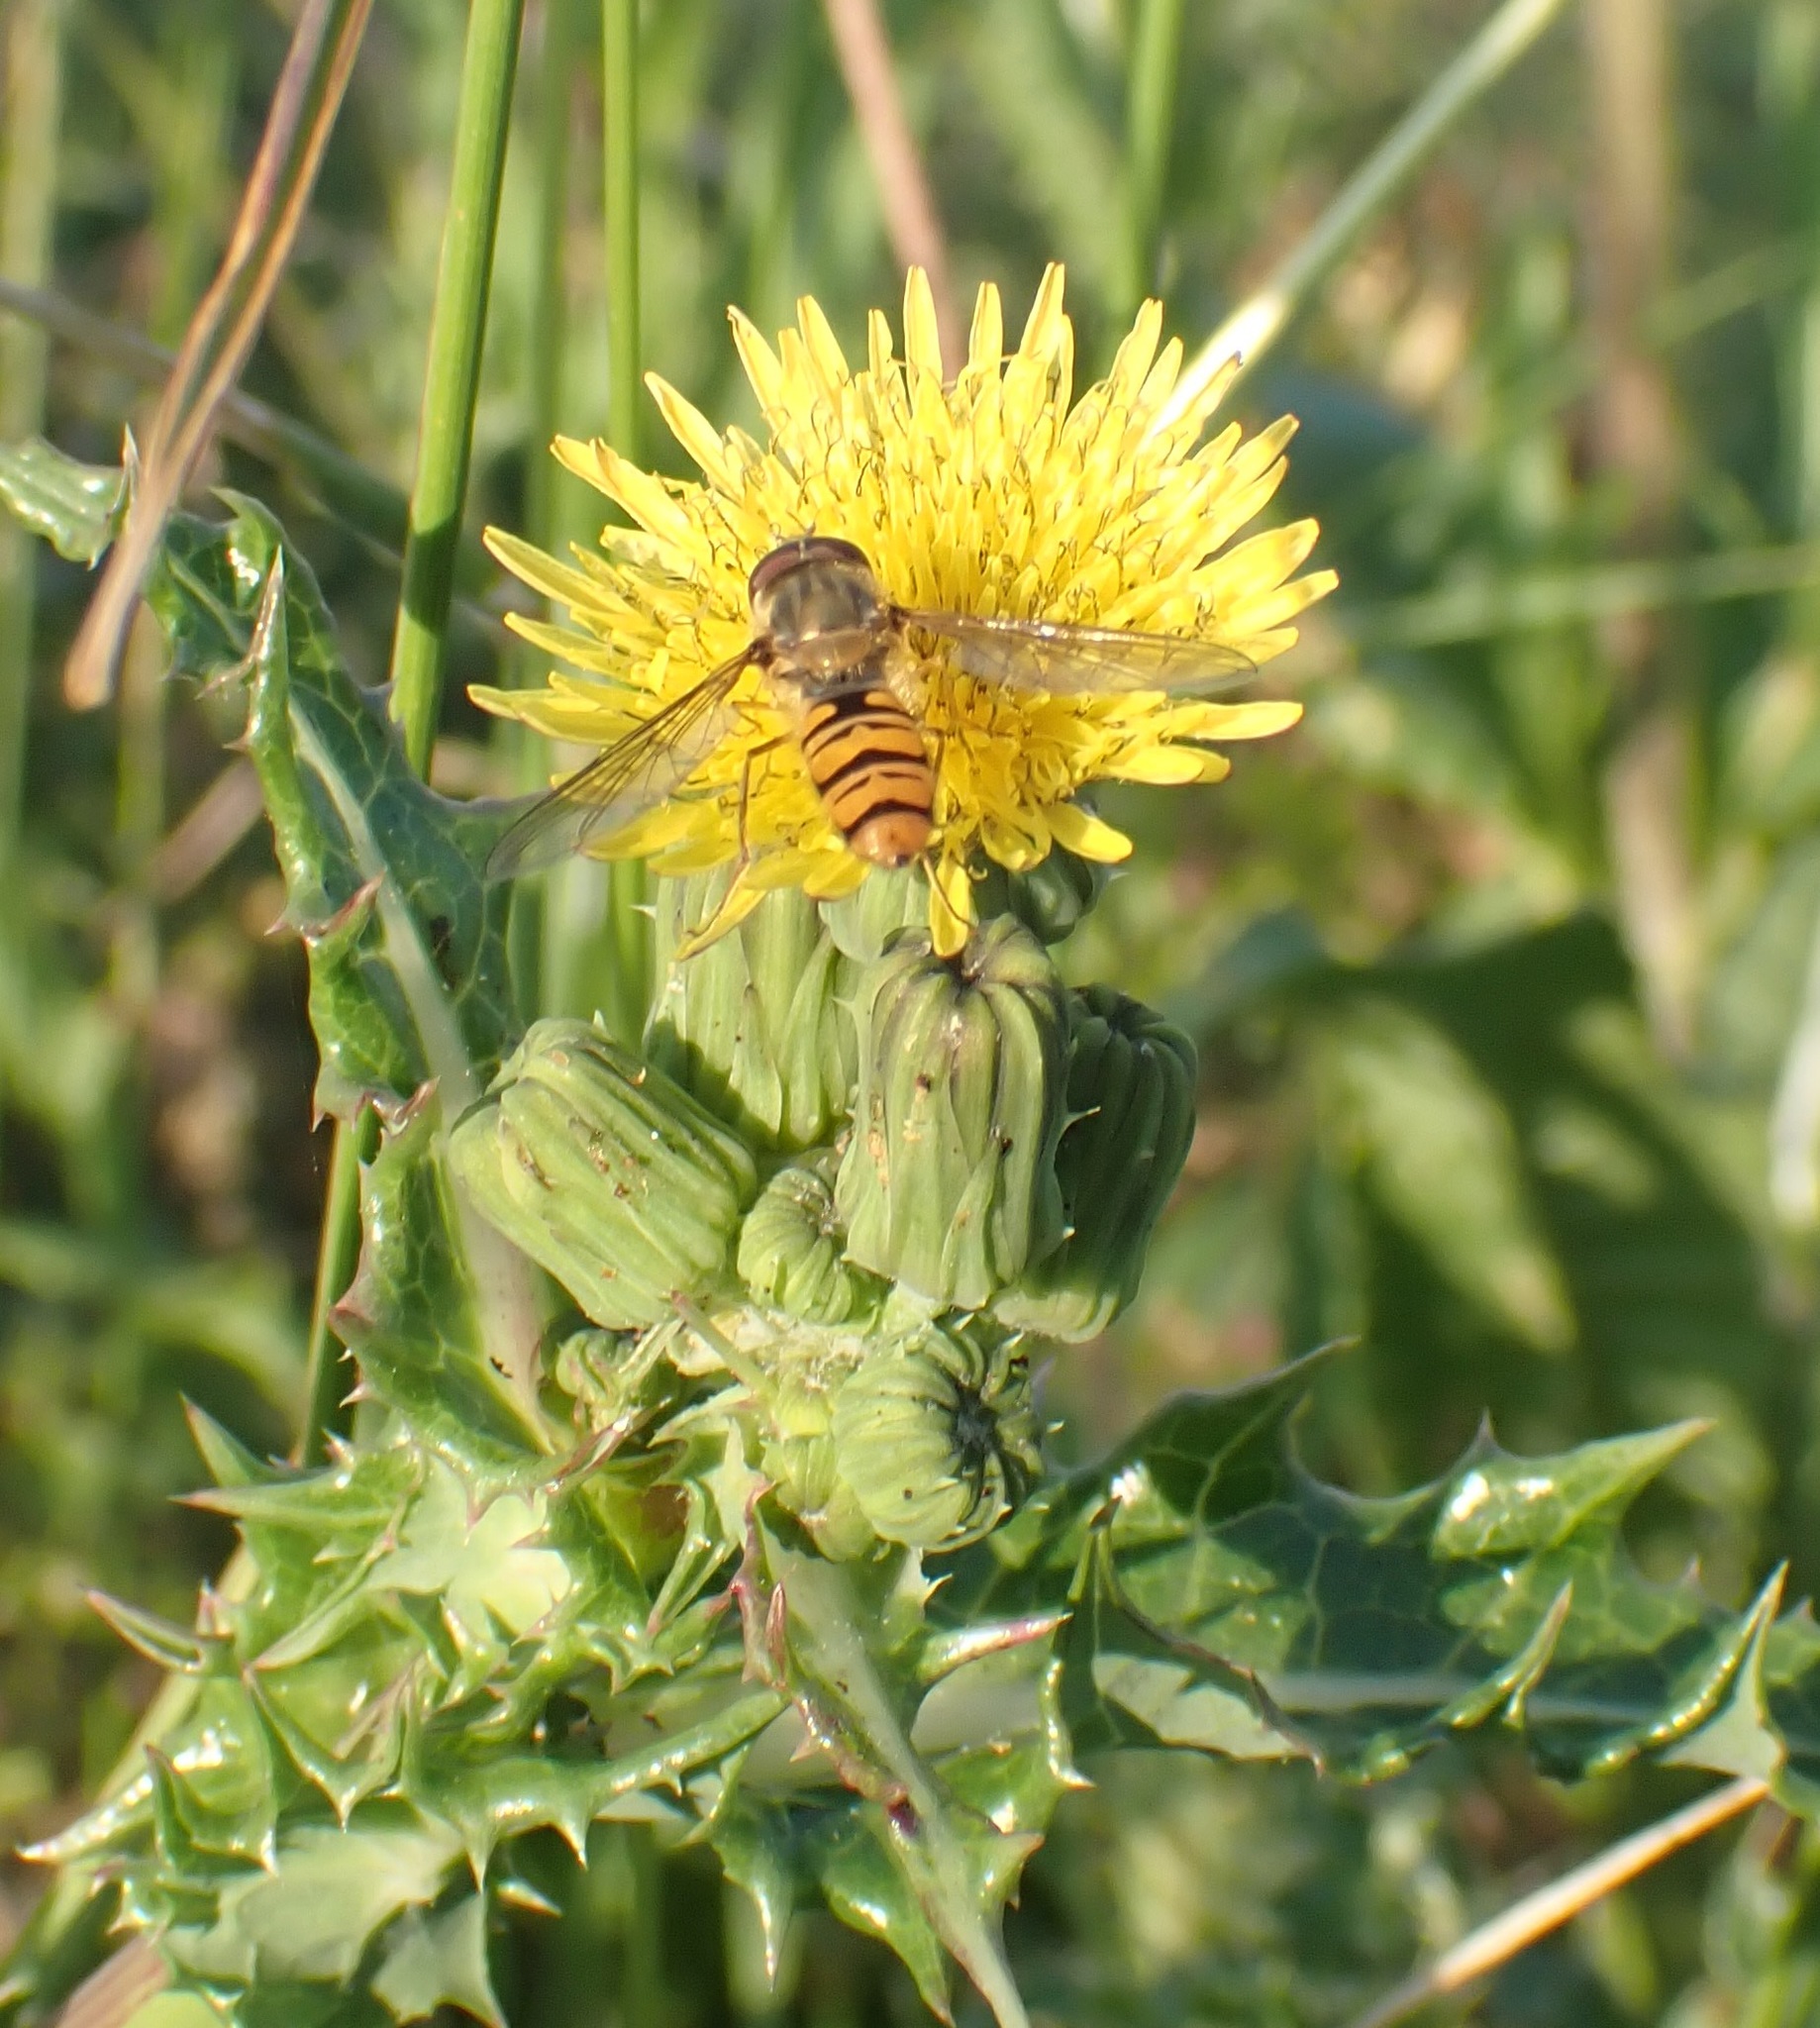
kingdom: Animalia
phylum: Arthropoda
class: Insecta
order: Diptera
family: Syrphidae
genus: Episyrphus
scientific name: Episyrphus balteatus
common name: Marmalade hoverfly
